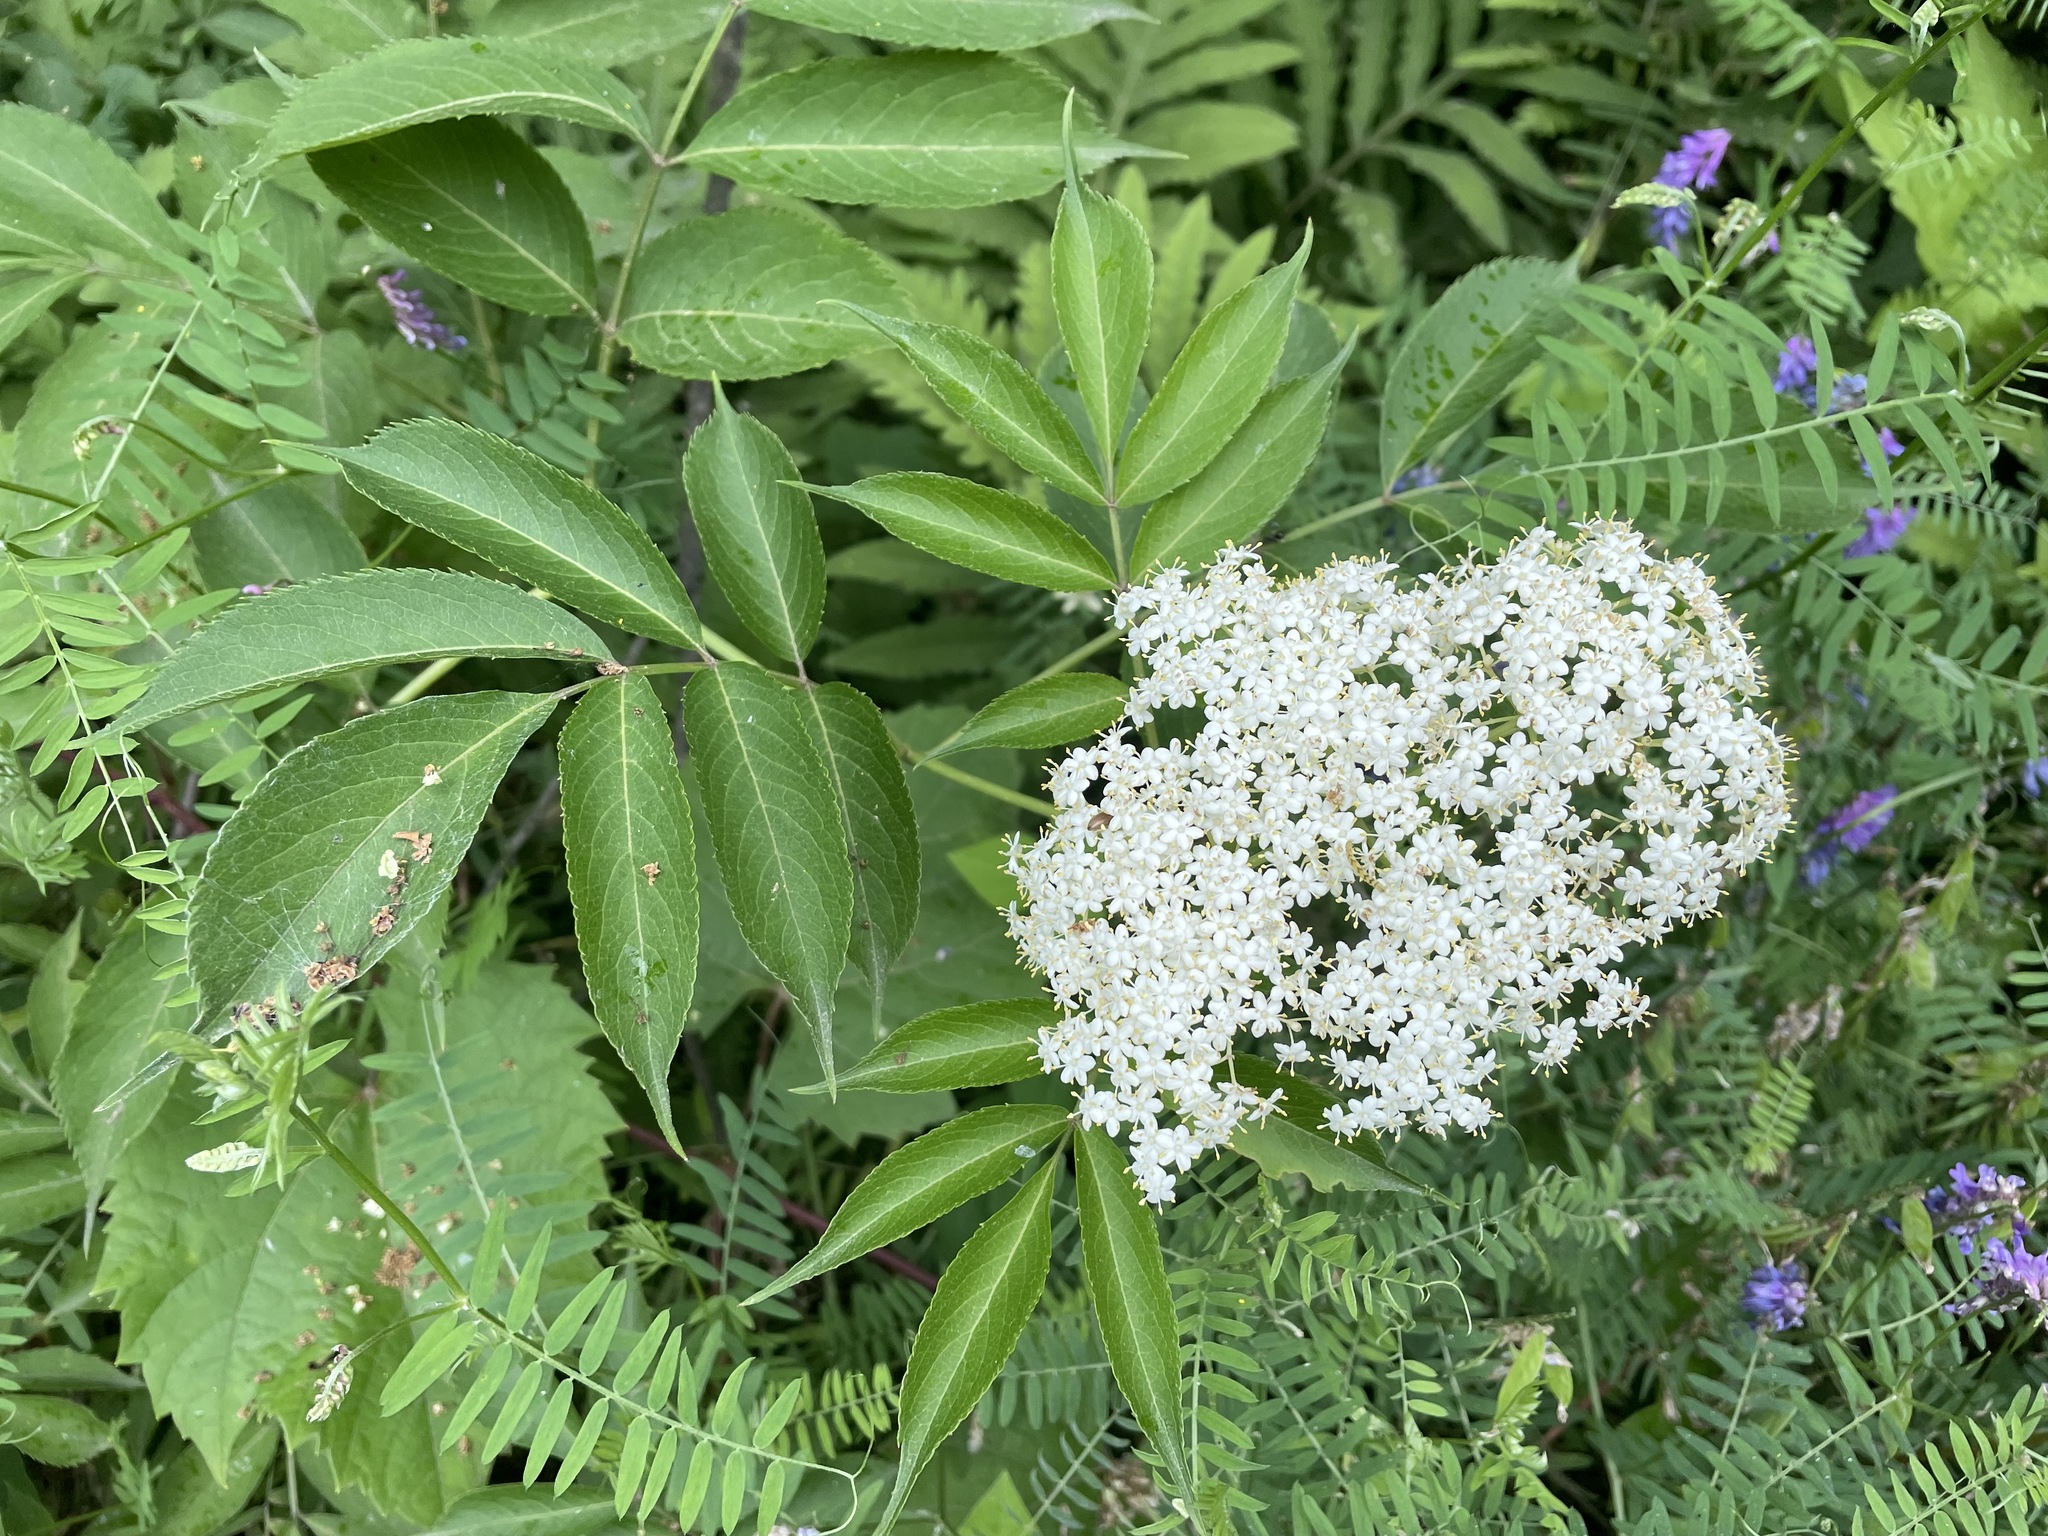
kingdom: Plantae
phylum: Tracheophyta
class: Magnoliopsida
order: Dipsacales
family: Viburnaceae
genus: Sambucus
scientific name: Sambucus canadensis
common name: American elder
